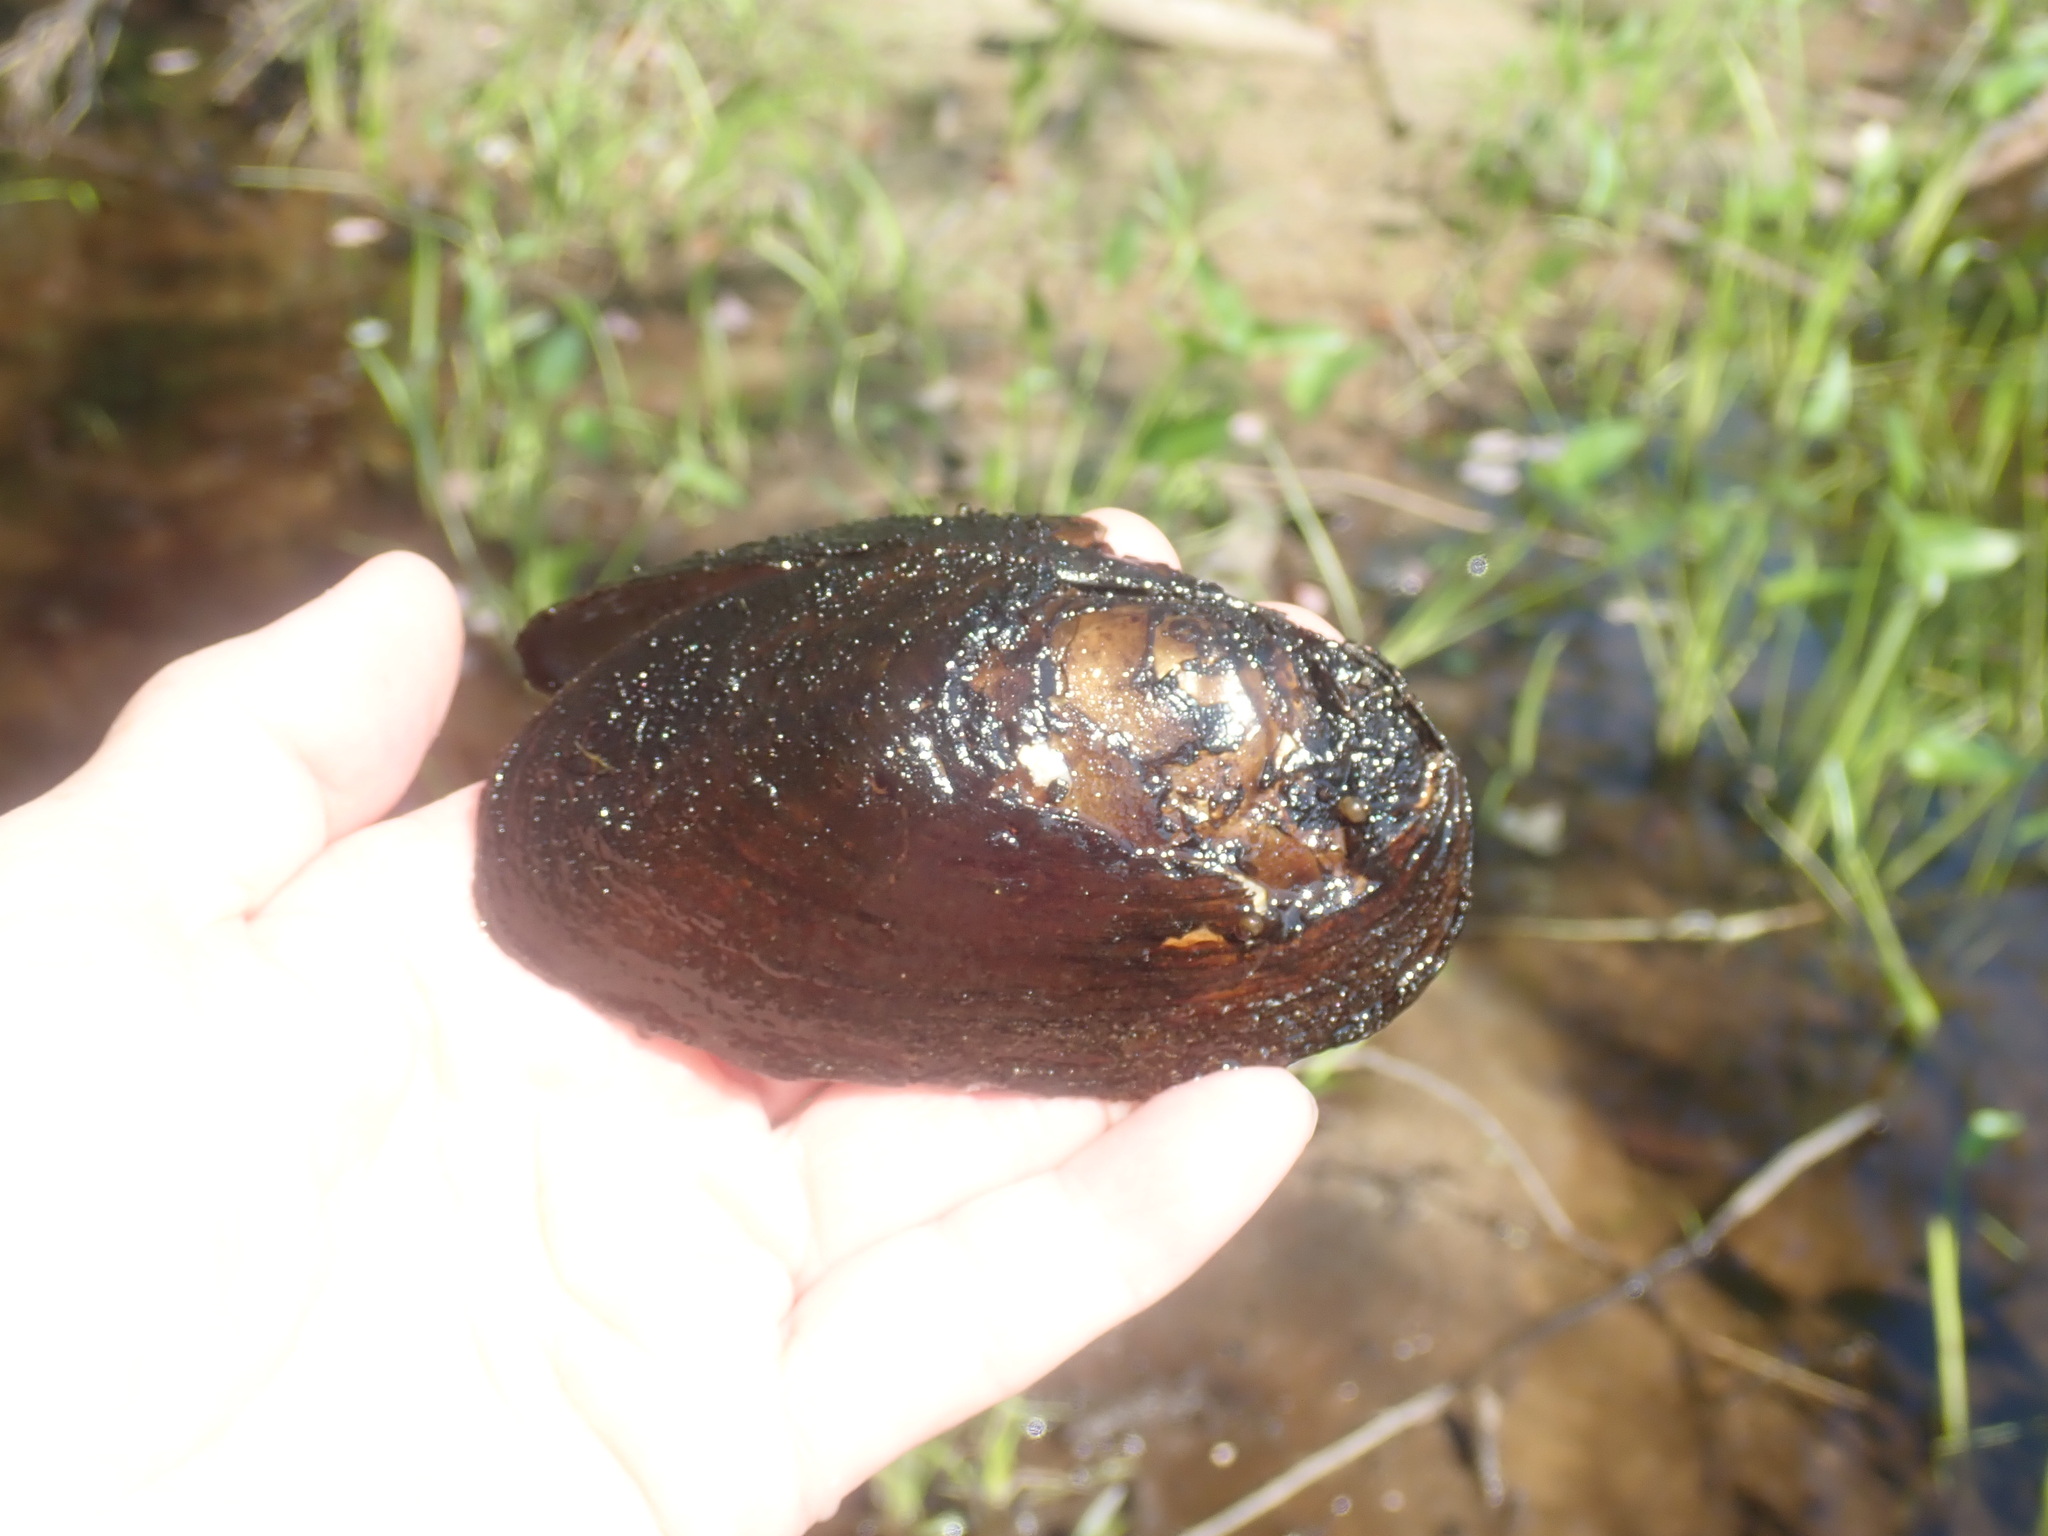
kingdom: Animalia
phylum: Mollusca
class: Bivalvia
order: Unionida
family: Unionidae
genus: Elliptio
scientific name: Elliptio complanata
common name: Eastern elliptio
